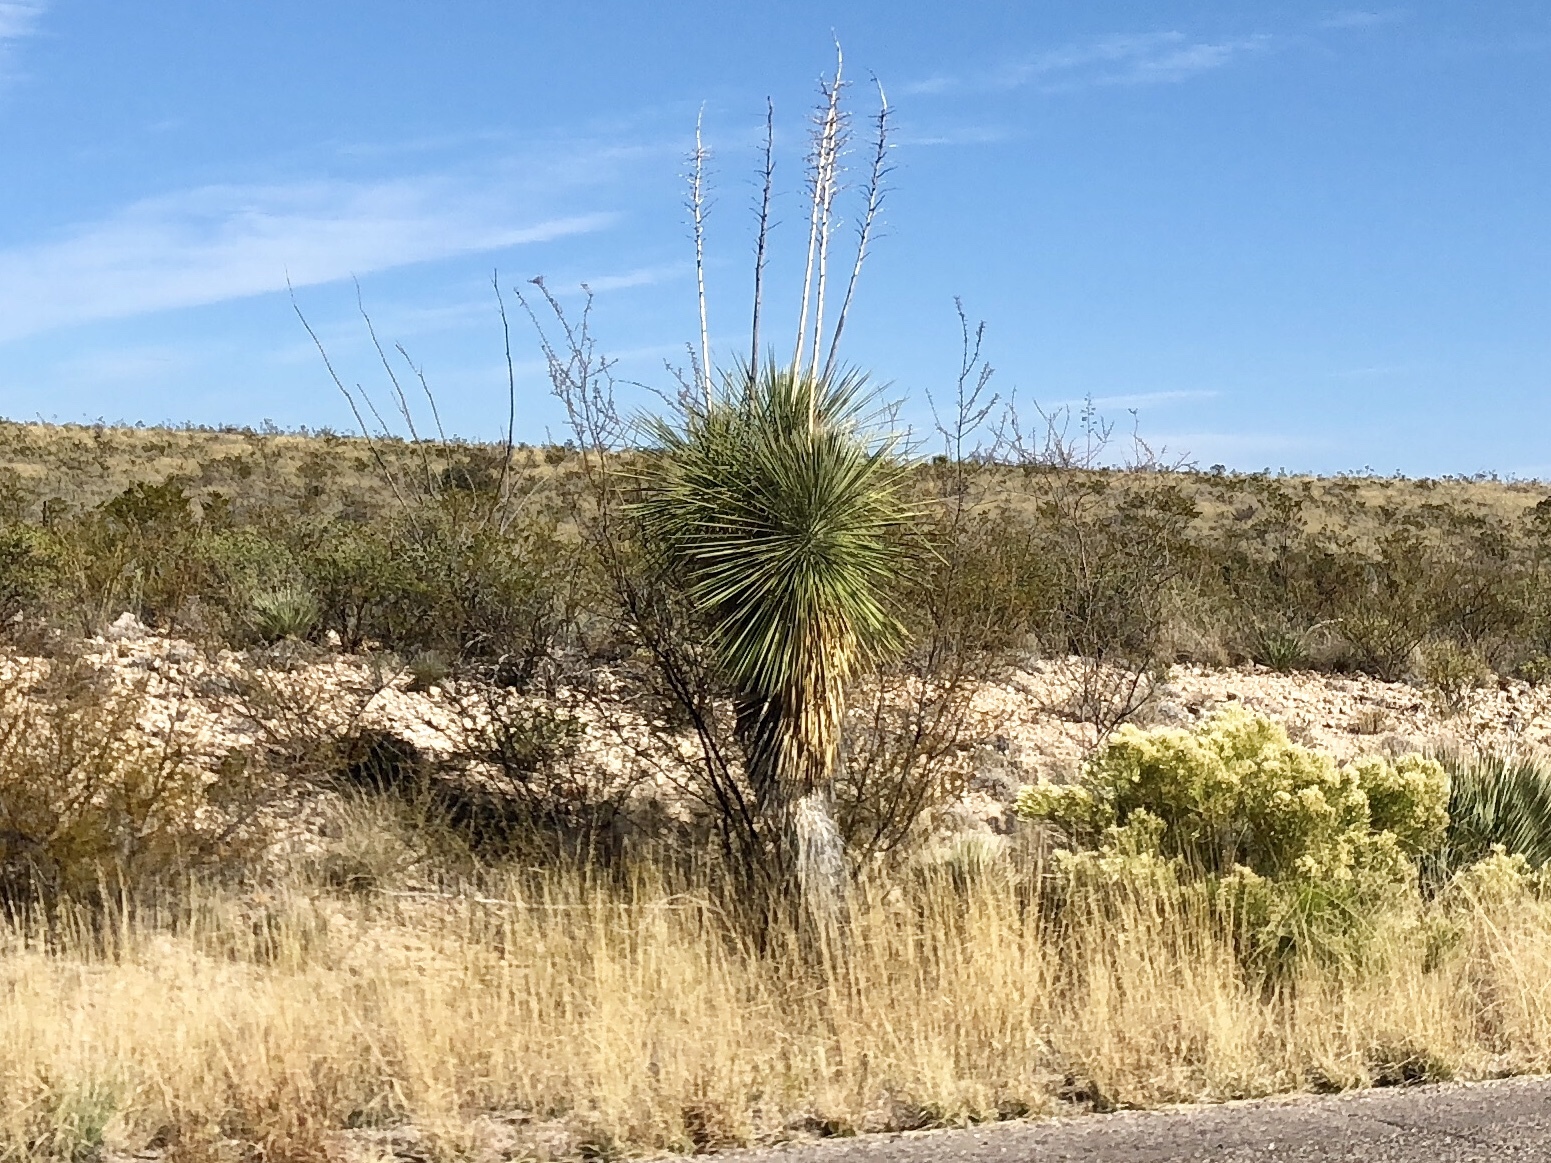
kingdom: Plantae
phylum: Tracheophyta
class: Liliopsida
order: Asparagales
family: Asparagaceae
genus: Yucca
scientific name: Yucca elata
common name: Palmella
